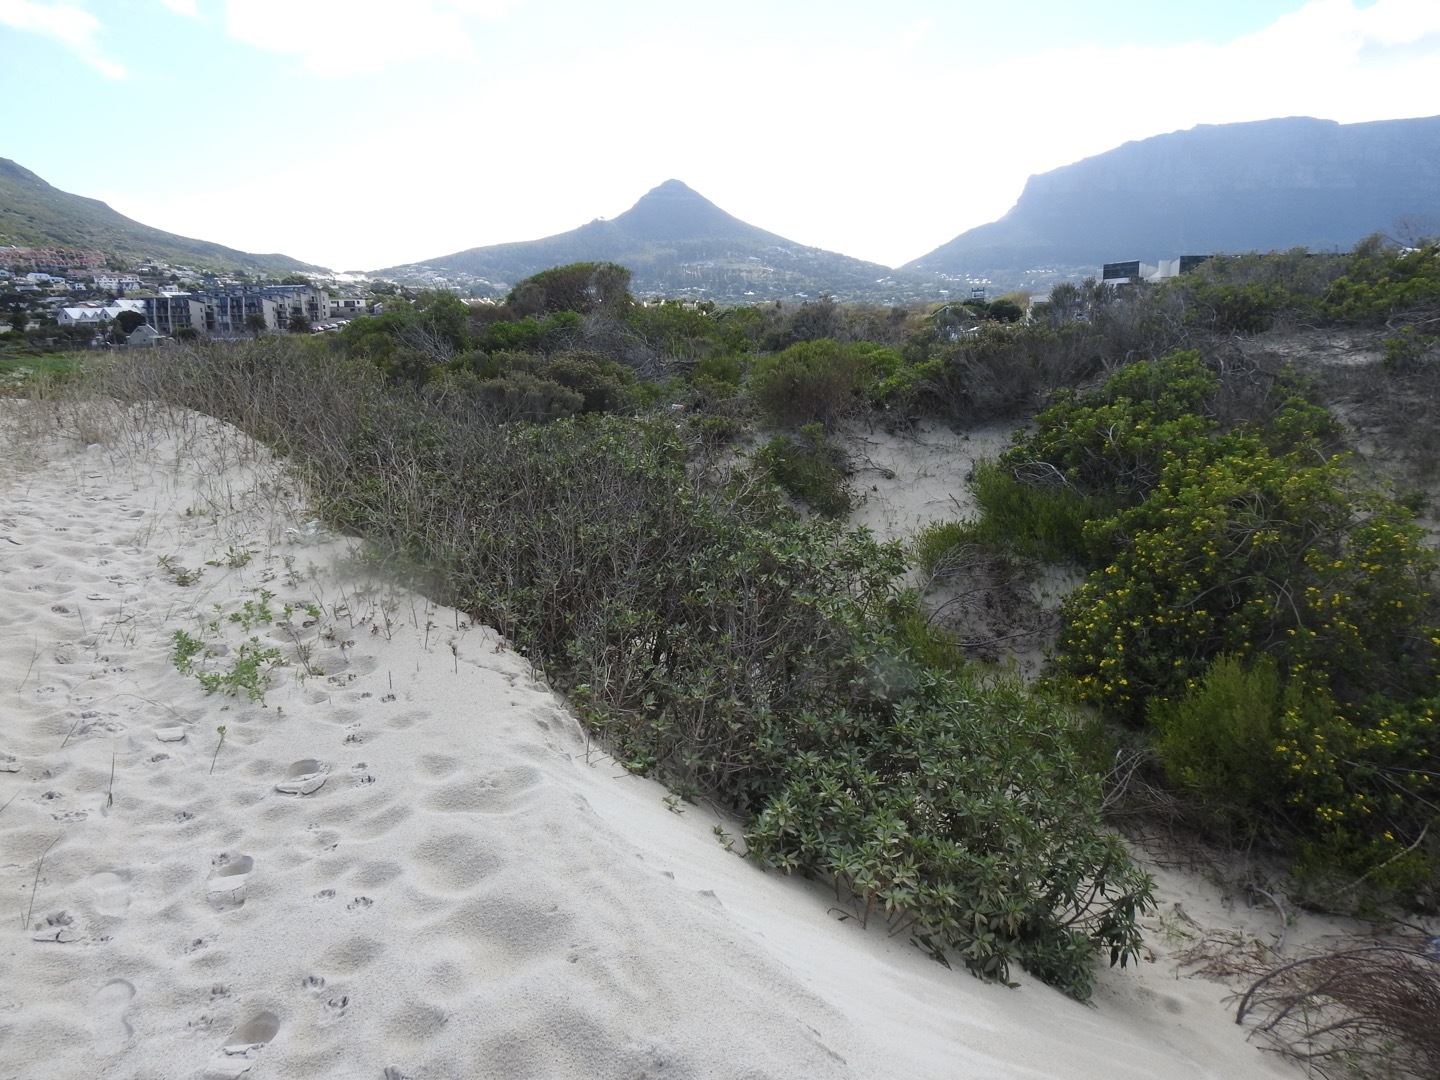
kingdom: Plantae
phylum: Tracheophyta
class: Magnoliopsida
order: Lamiales
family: Scrophulariaceae
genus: Myoporum
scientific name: Myoporum insulare
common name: Common boobialla
